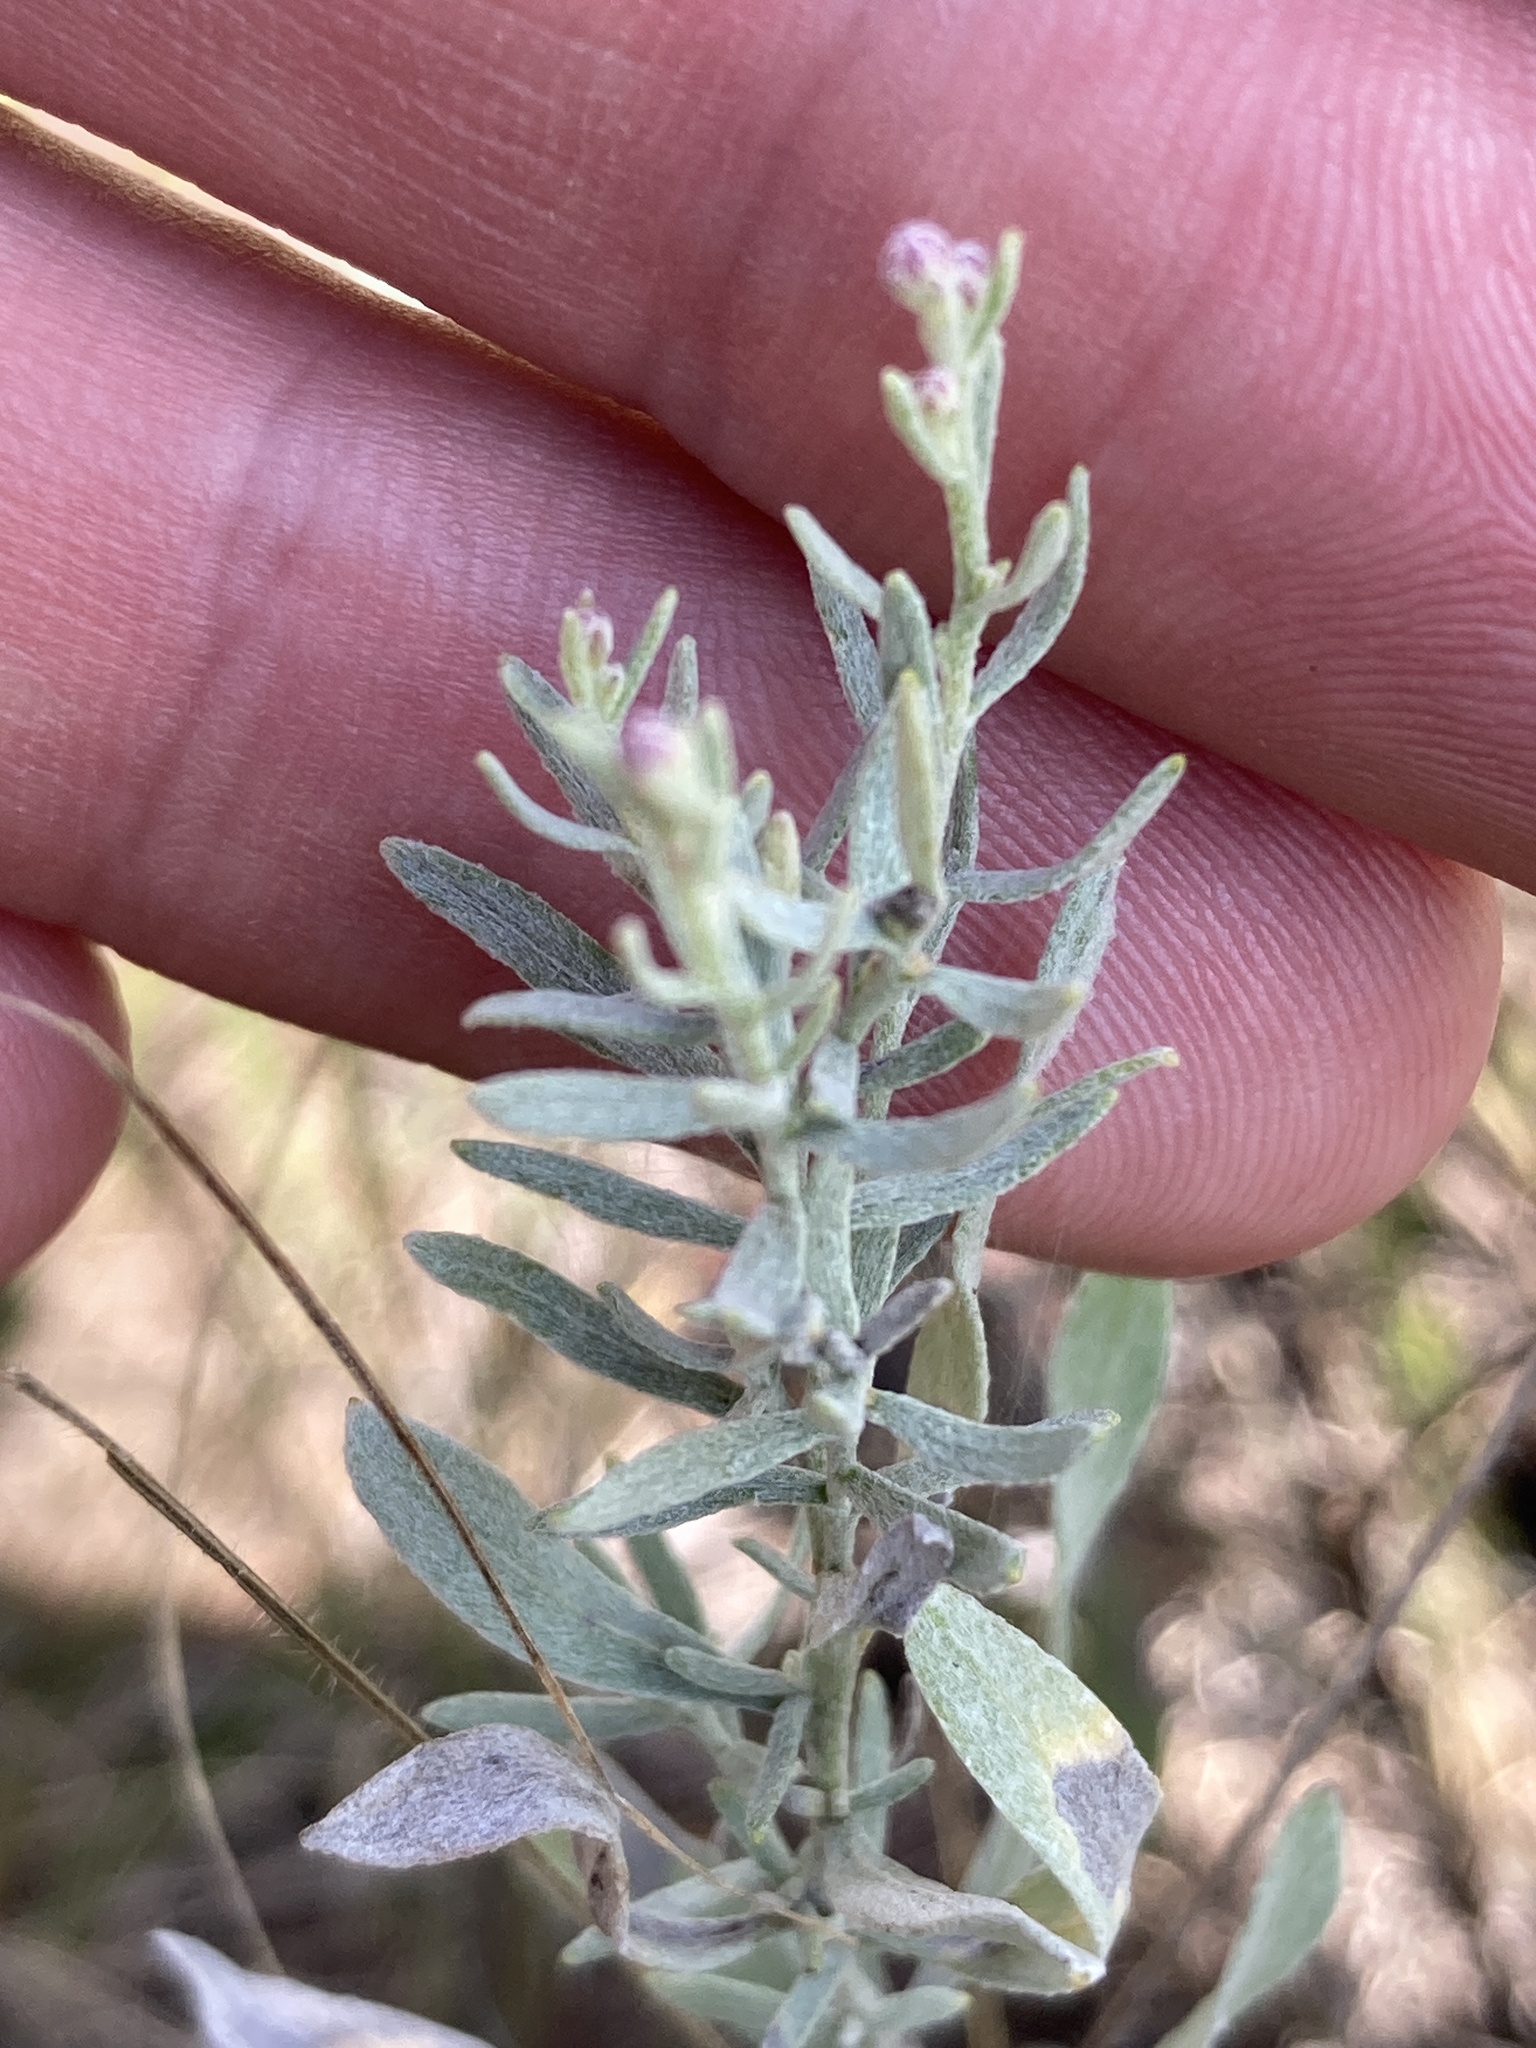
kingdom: Plantae
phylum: Tracheophyta
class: Magnoliopsida
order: Asterales
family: Asteraceae
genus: Galatella
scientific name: Galatella villosa
